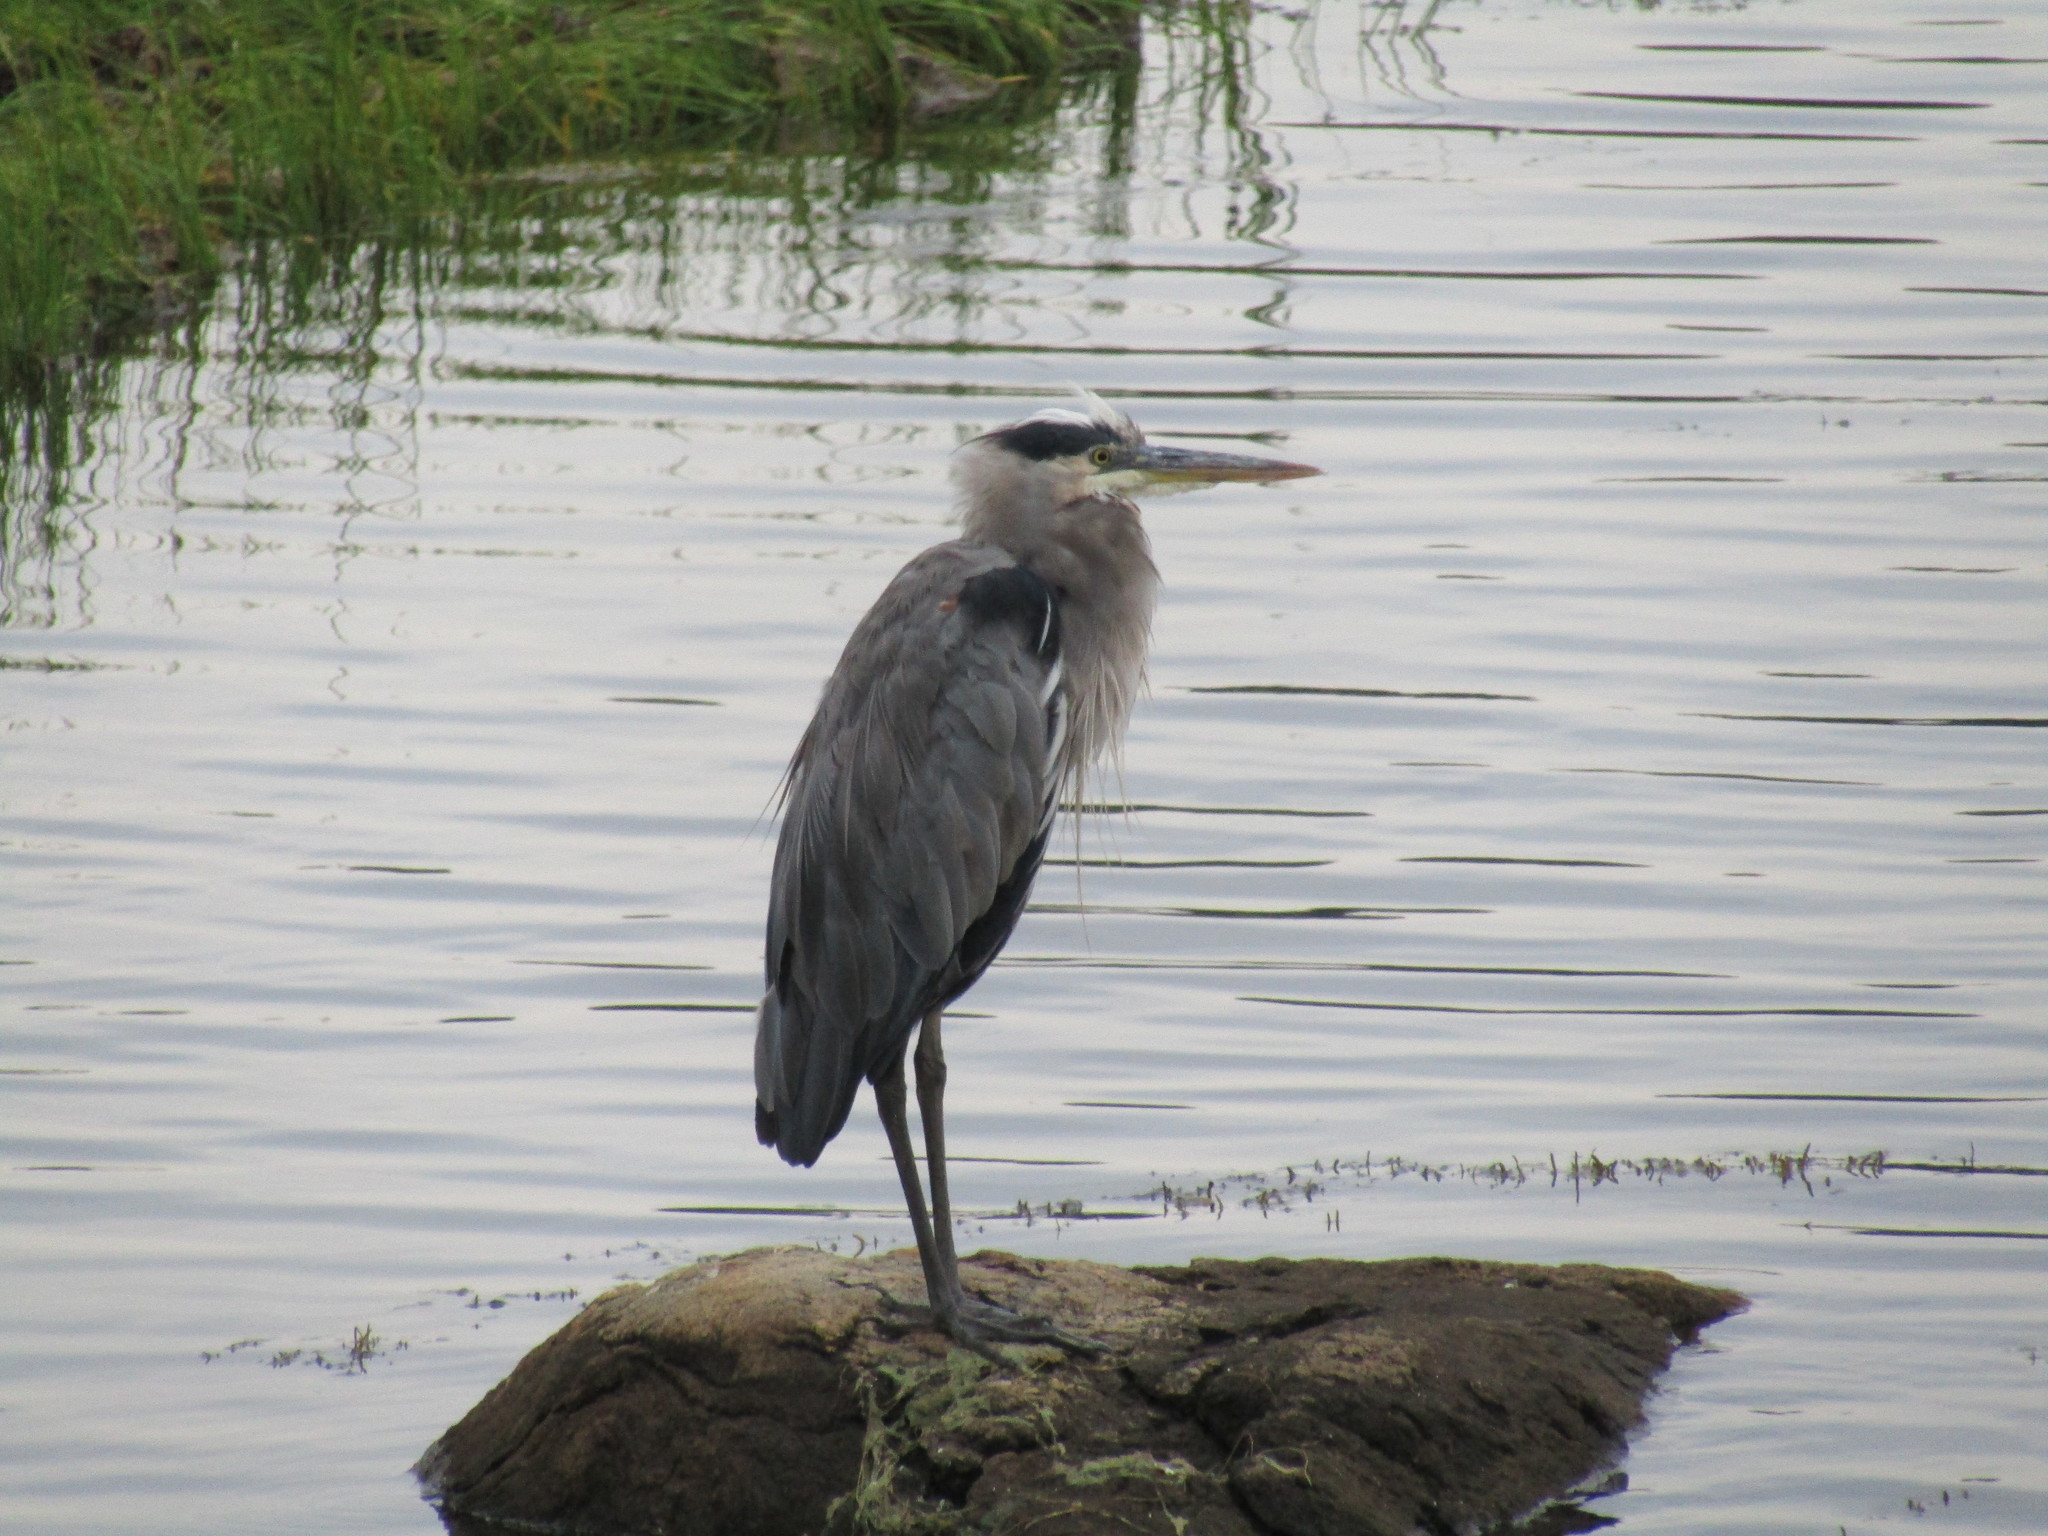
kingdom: Animalia
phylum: Chordata
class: Aves
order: Pelecaniformes
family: Ardeidae
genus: Ardea
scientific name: Ardea herodias
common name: Great blue heron
